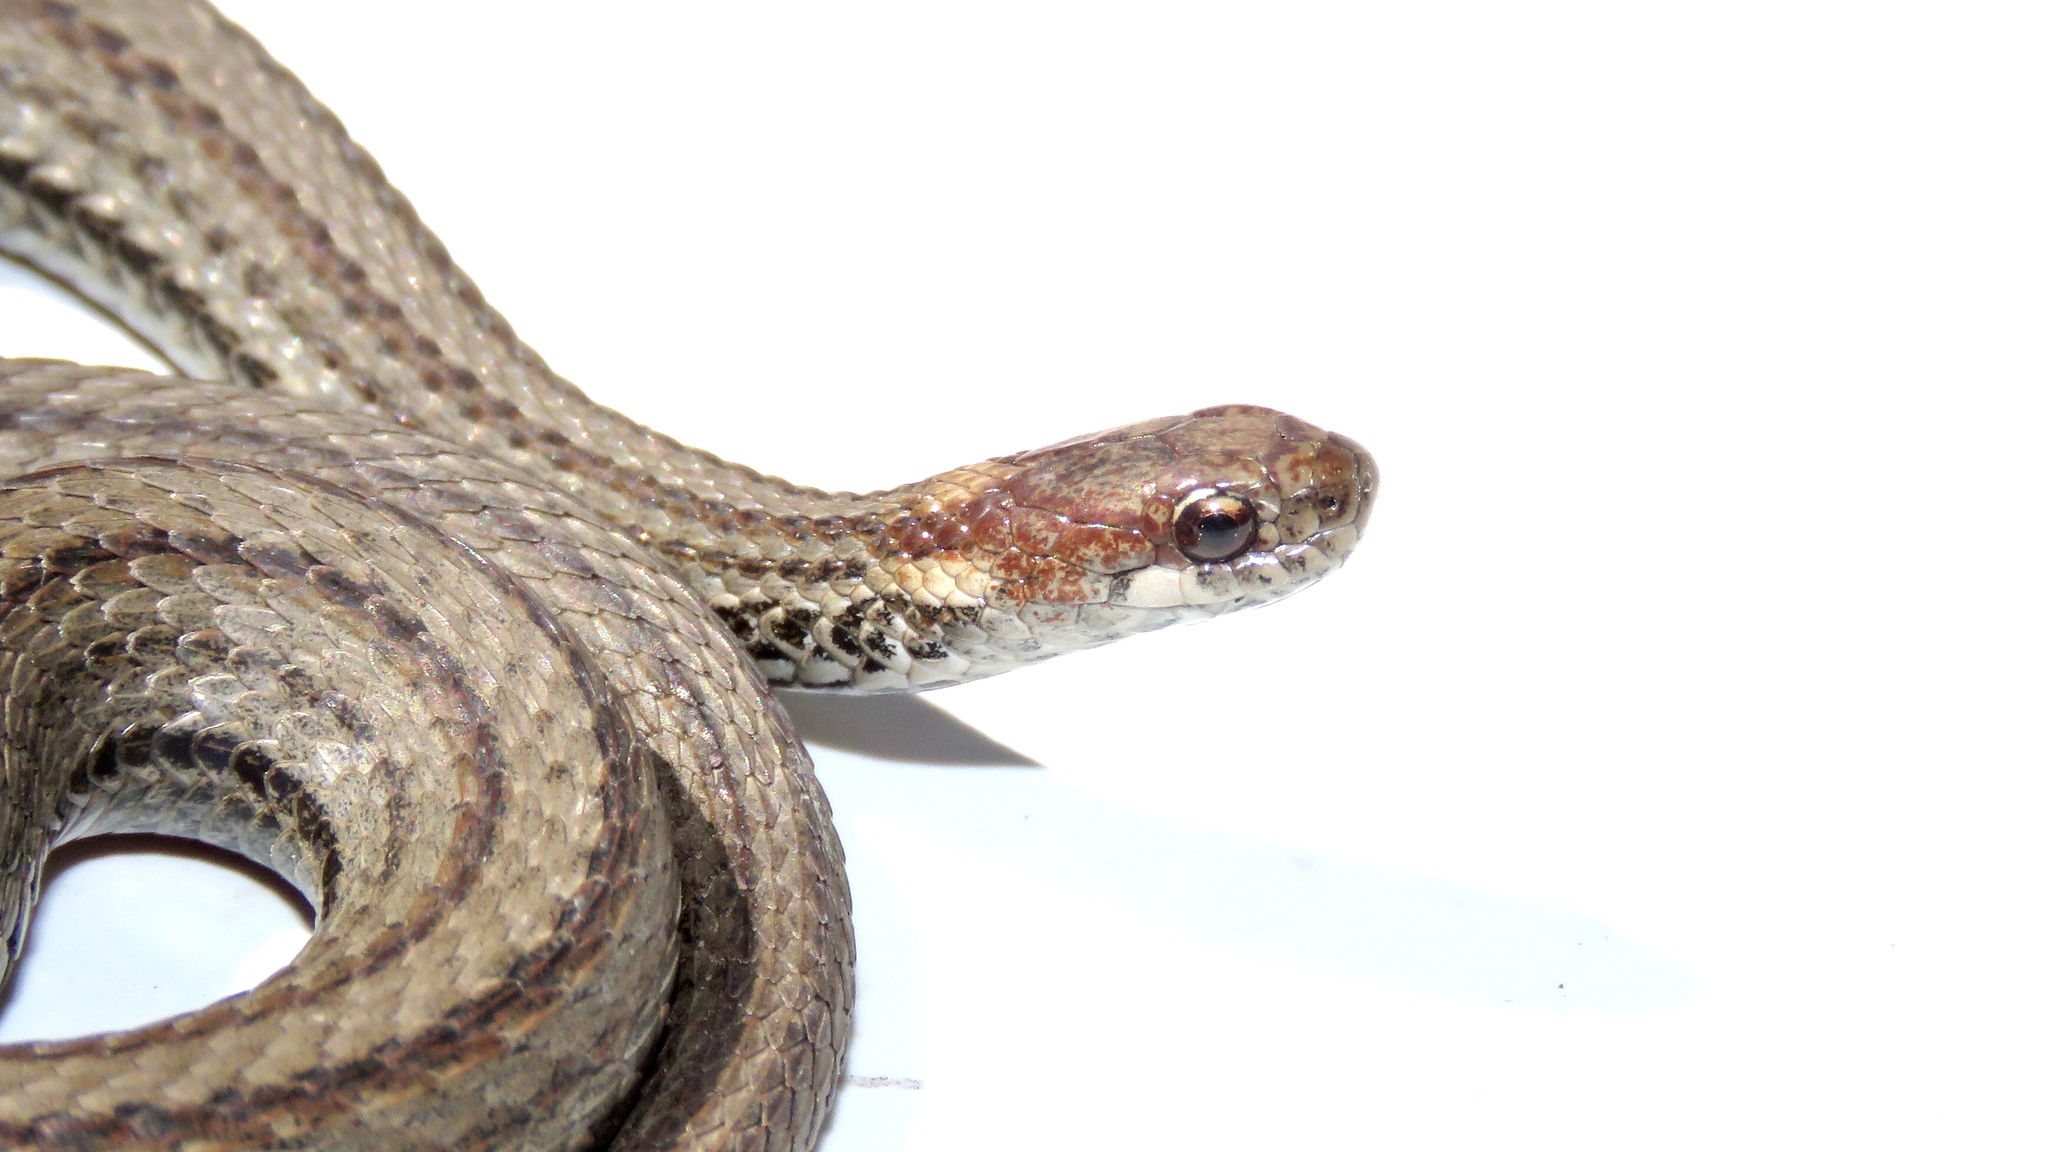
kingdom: Animalia
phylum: Chordata
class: Squamata
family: Colubridae
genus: Storeria
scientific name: Storeria occipitomaculata
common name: Redbelly snake
